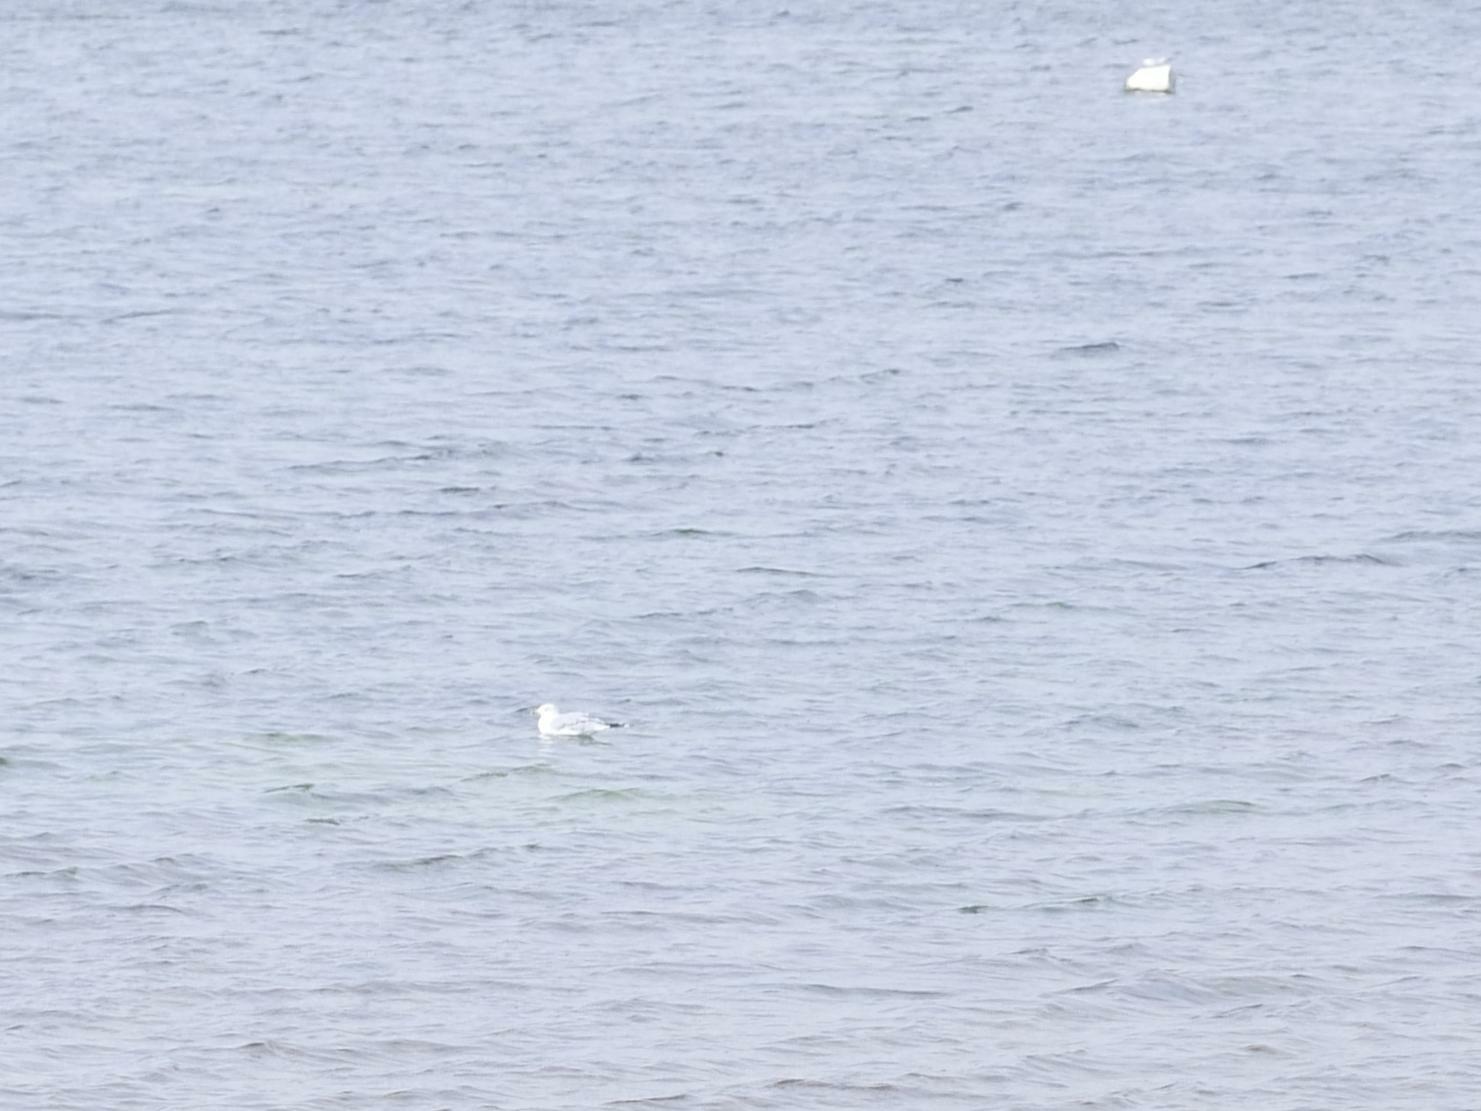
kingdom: Animalia
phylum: Chordata
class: Aves
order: Charadriiformes
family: Laridae
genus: Larus
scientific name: Larus delawarensis
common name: Ring-billed gull
